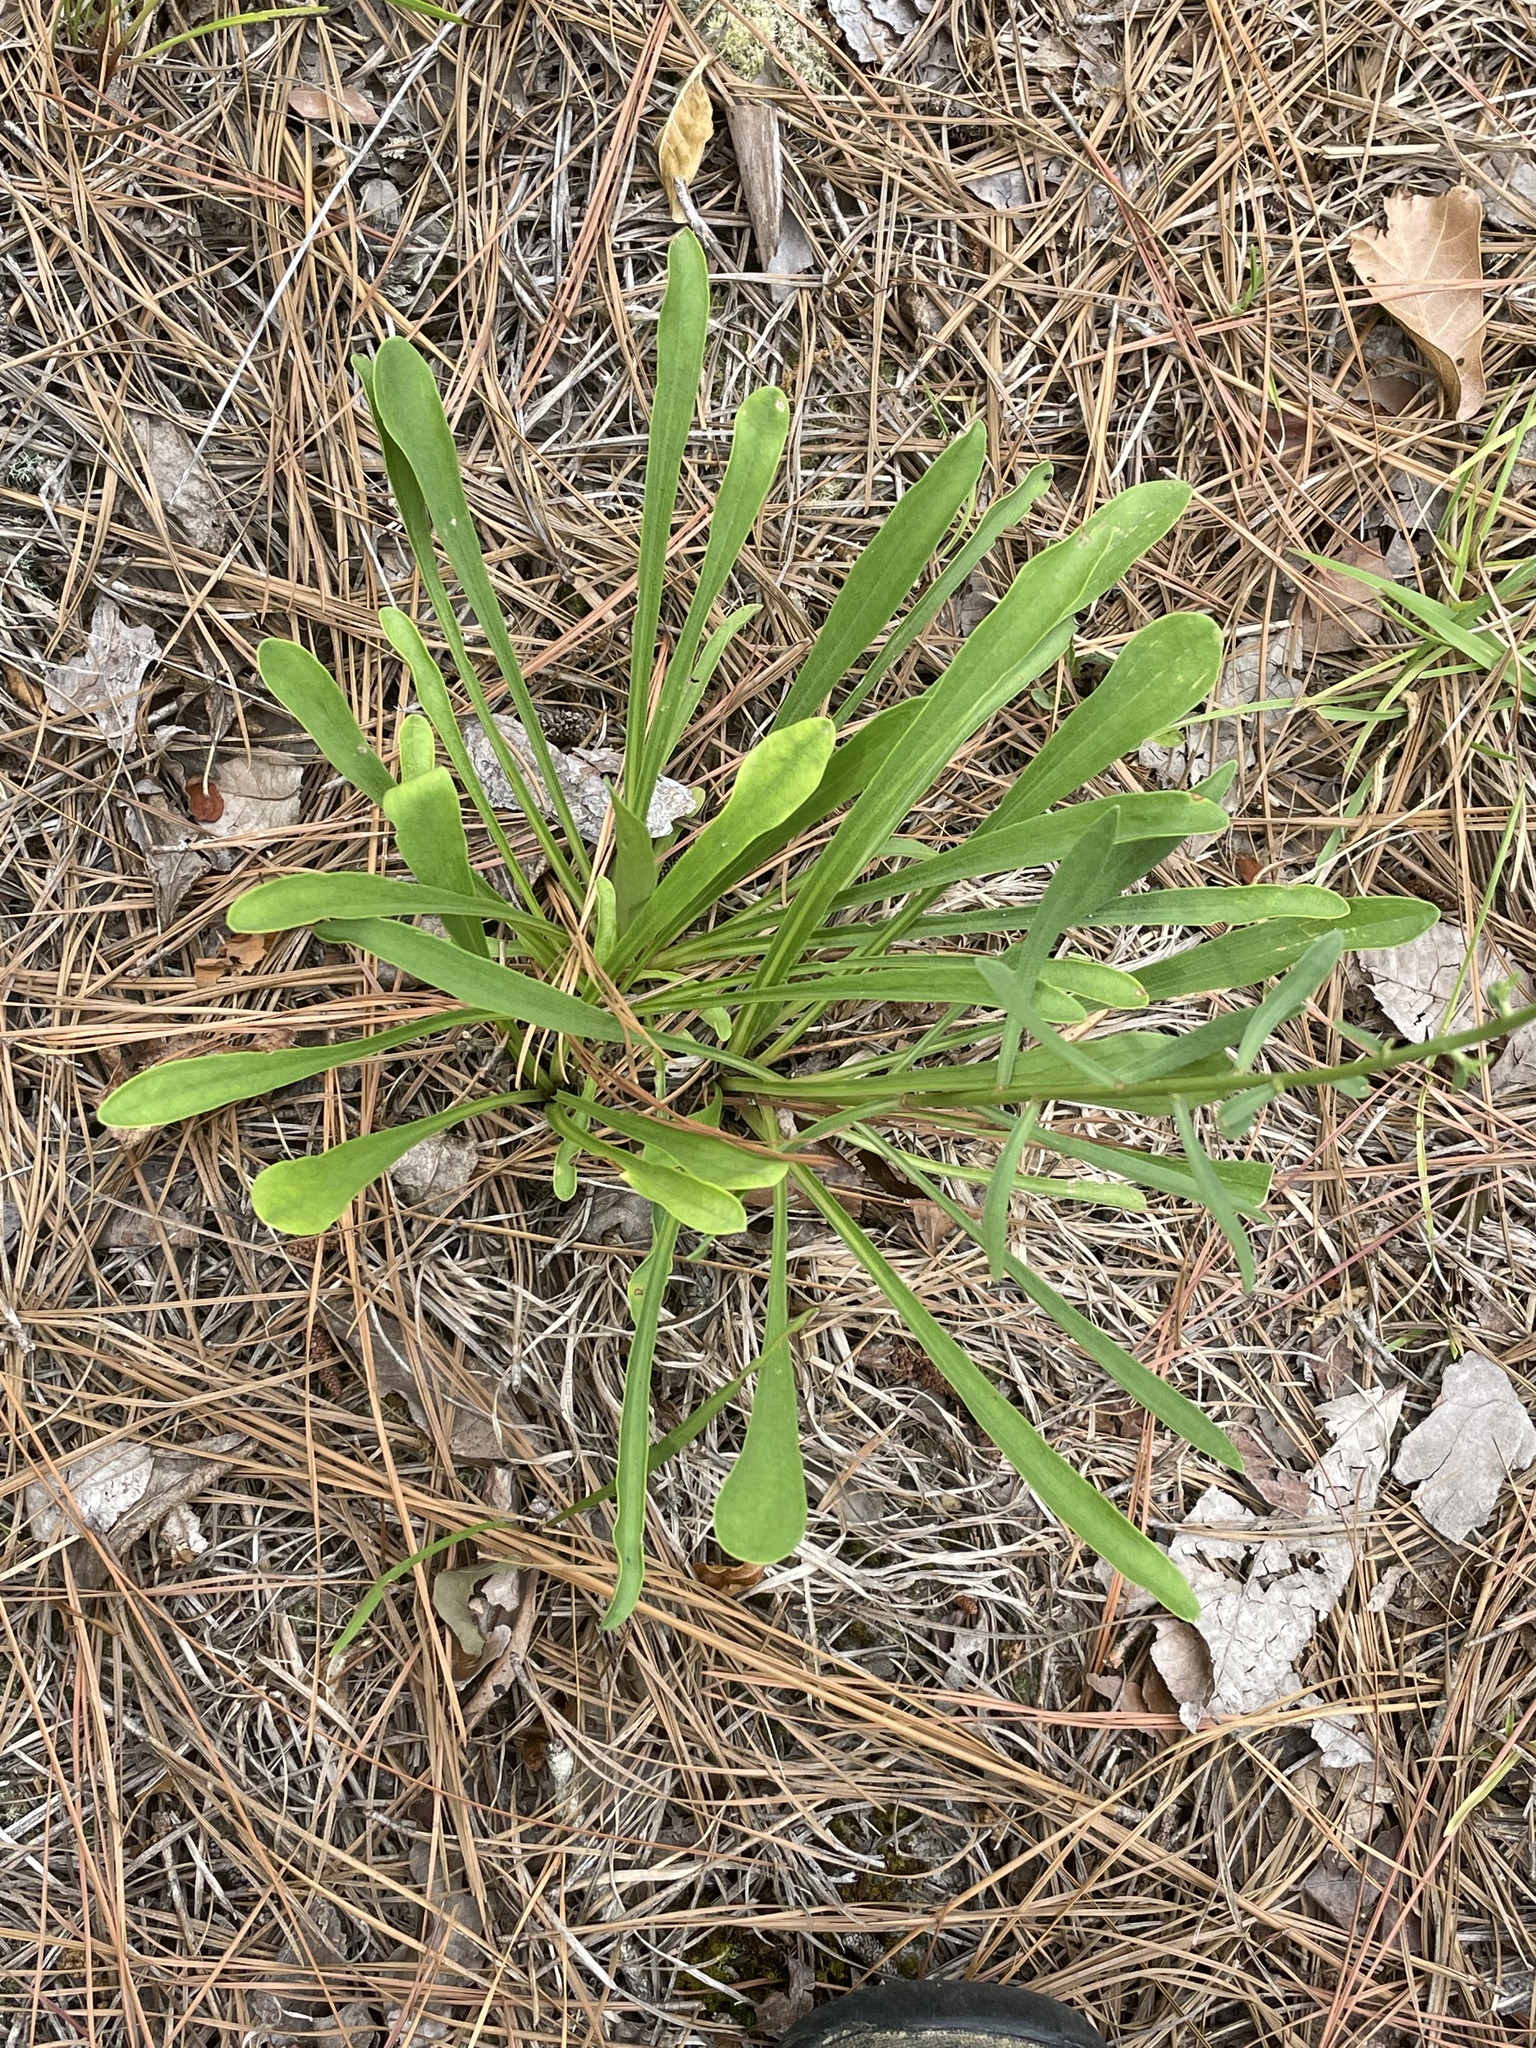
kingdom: Plantae
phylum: Tracheophyta
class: Magnoliopsida
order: Asterales
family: Asteraceae
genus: Carphephorus
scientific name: Carphephorus bellidifolius
